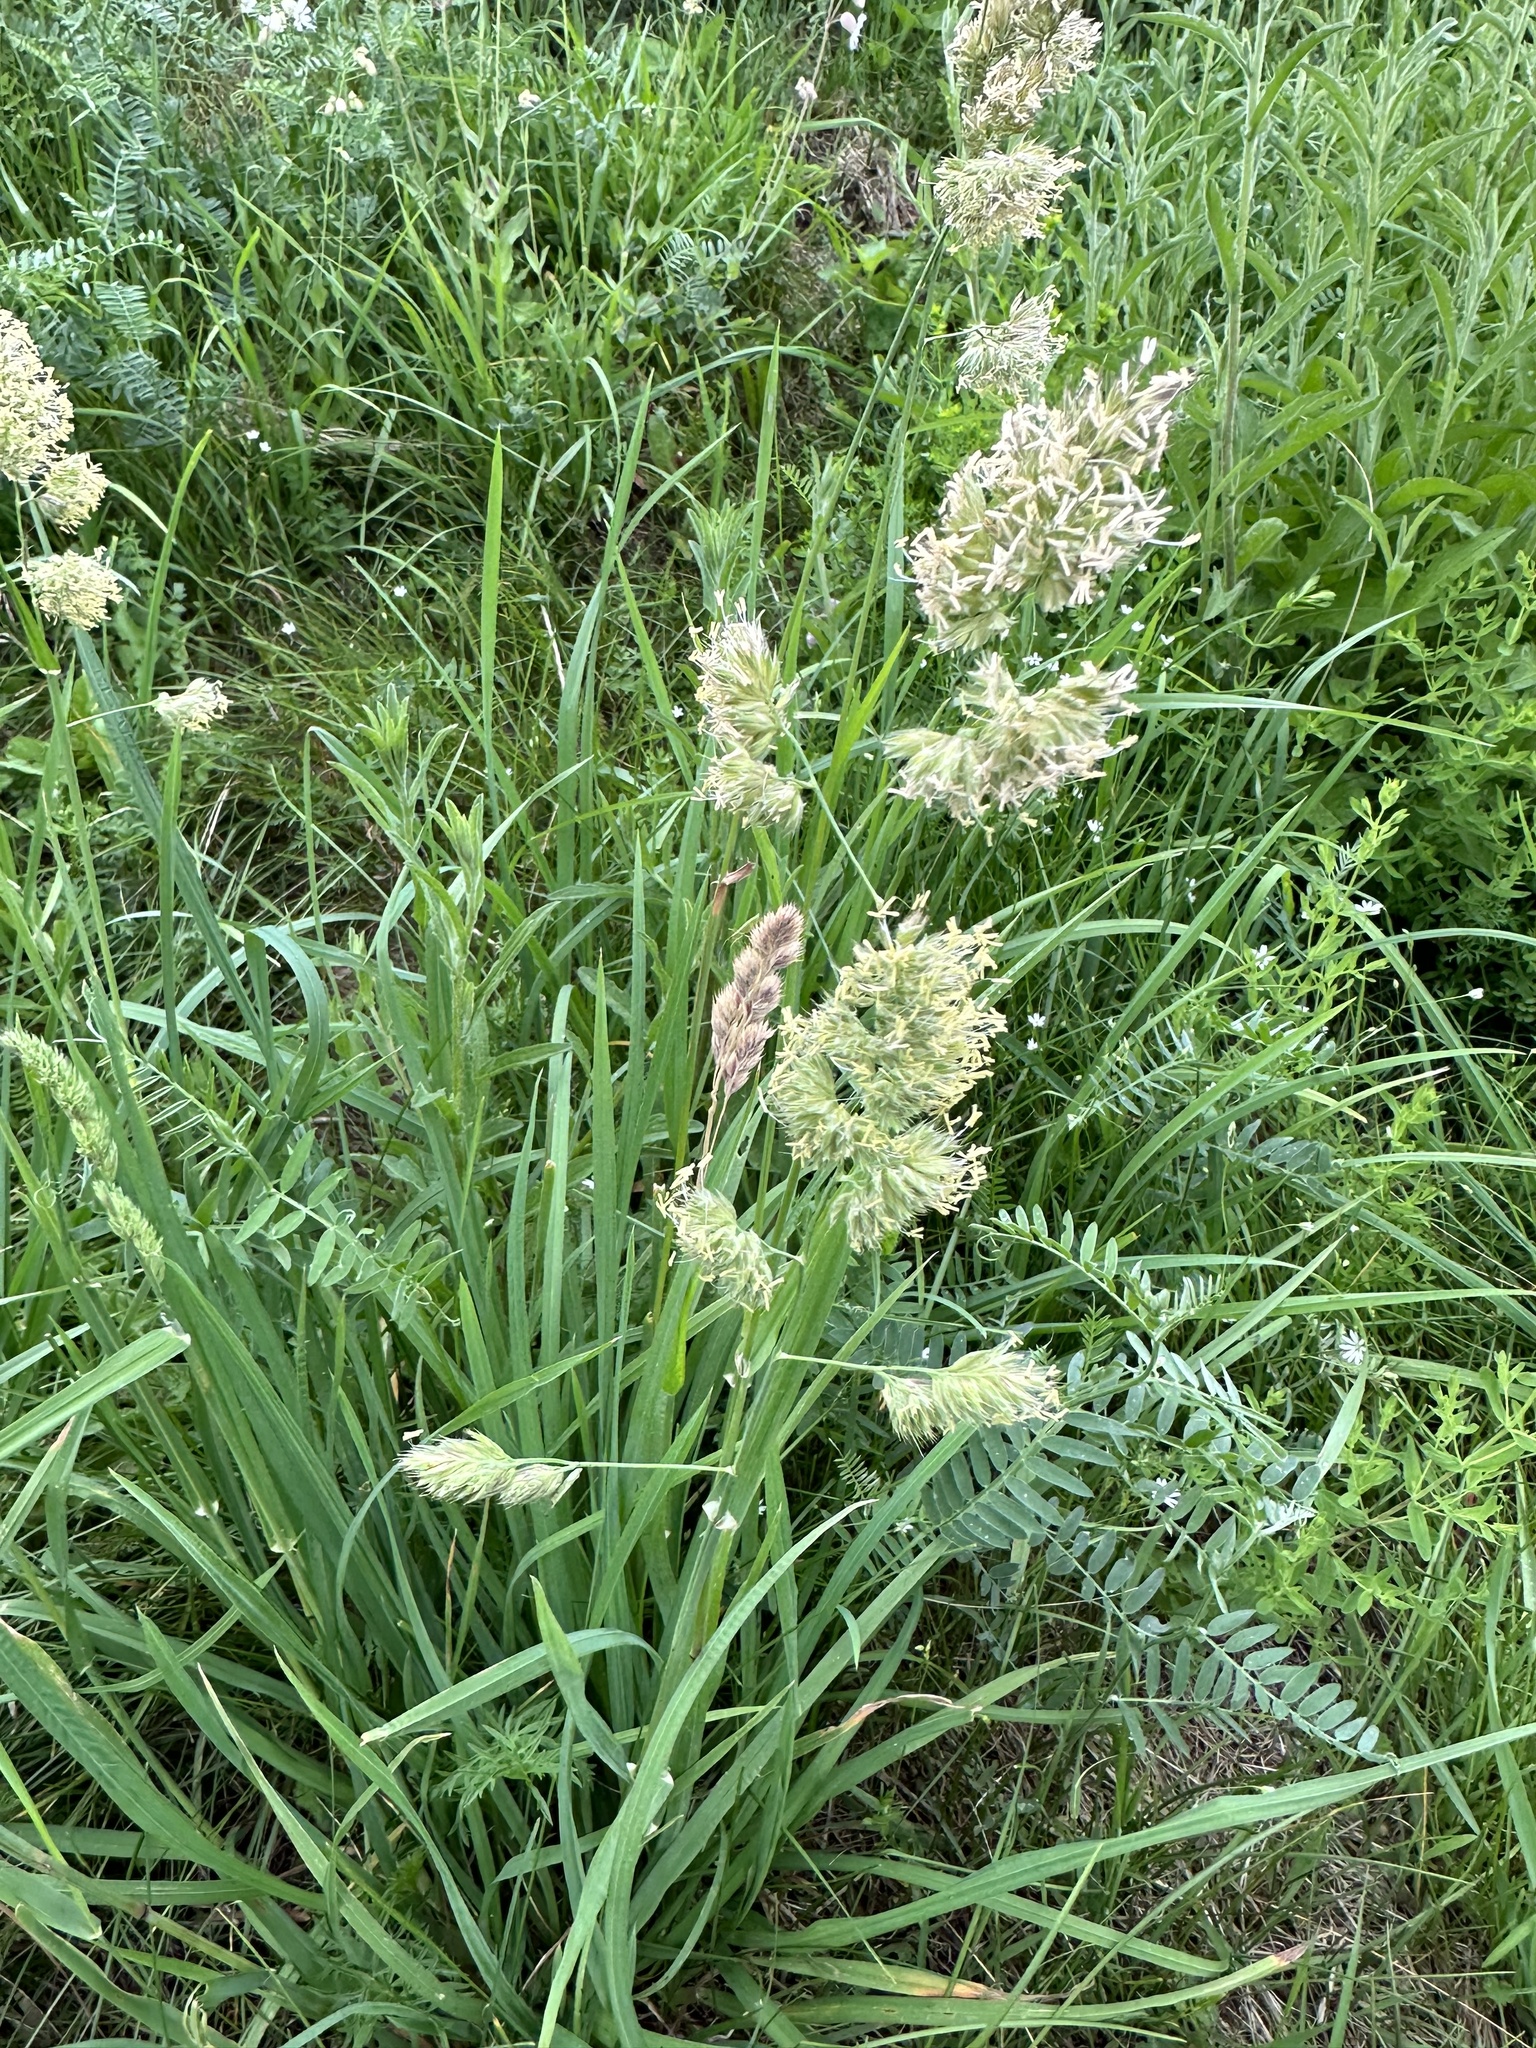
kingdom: Plantae
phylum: Tracheophyta
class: Liliopsida
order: Poales
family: Poaceae
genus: Dactylis
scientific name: Dactylis glomerata
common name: Orchardgrass
